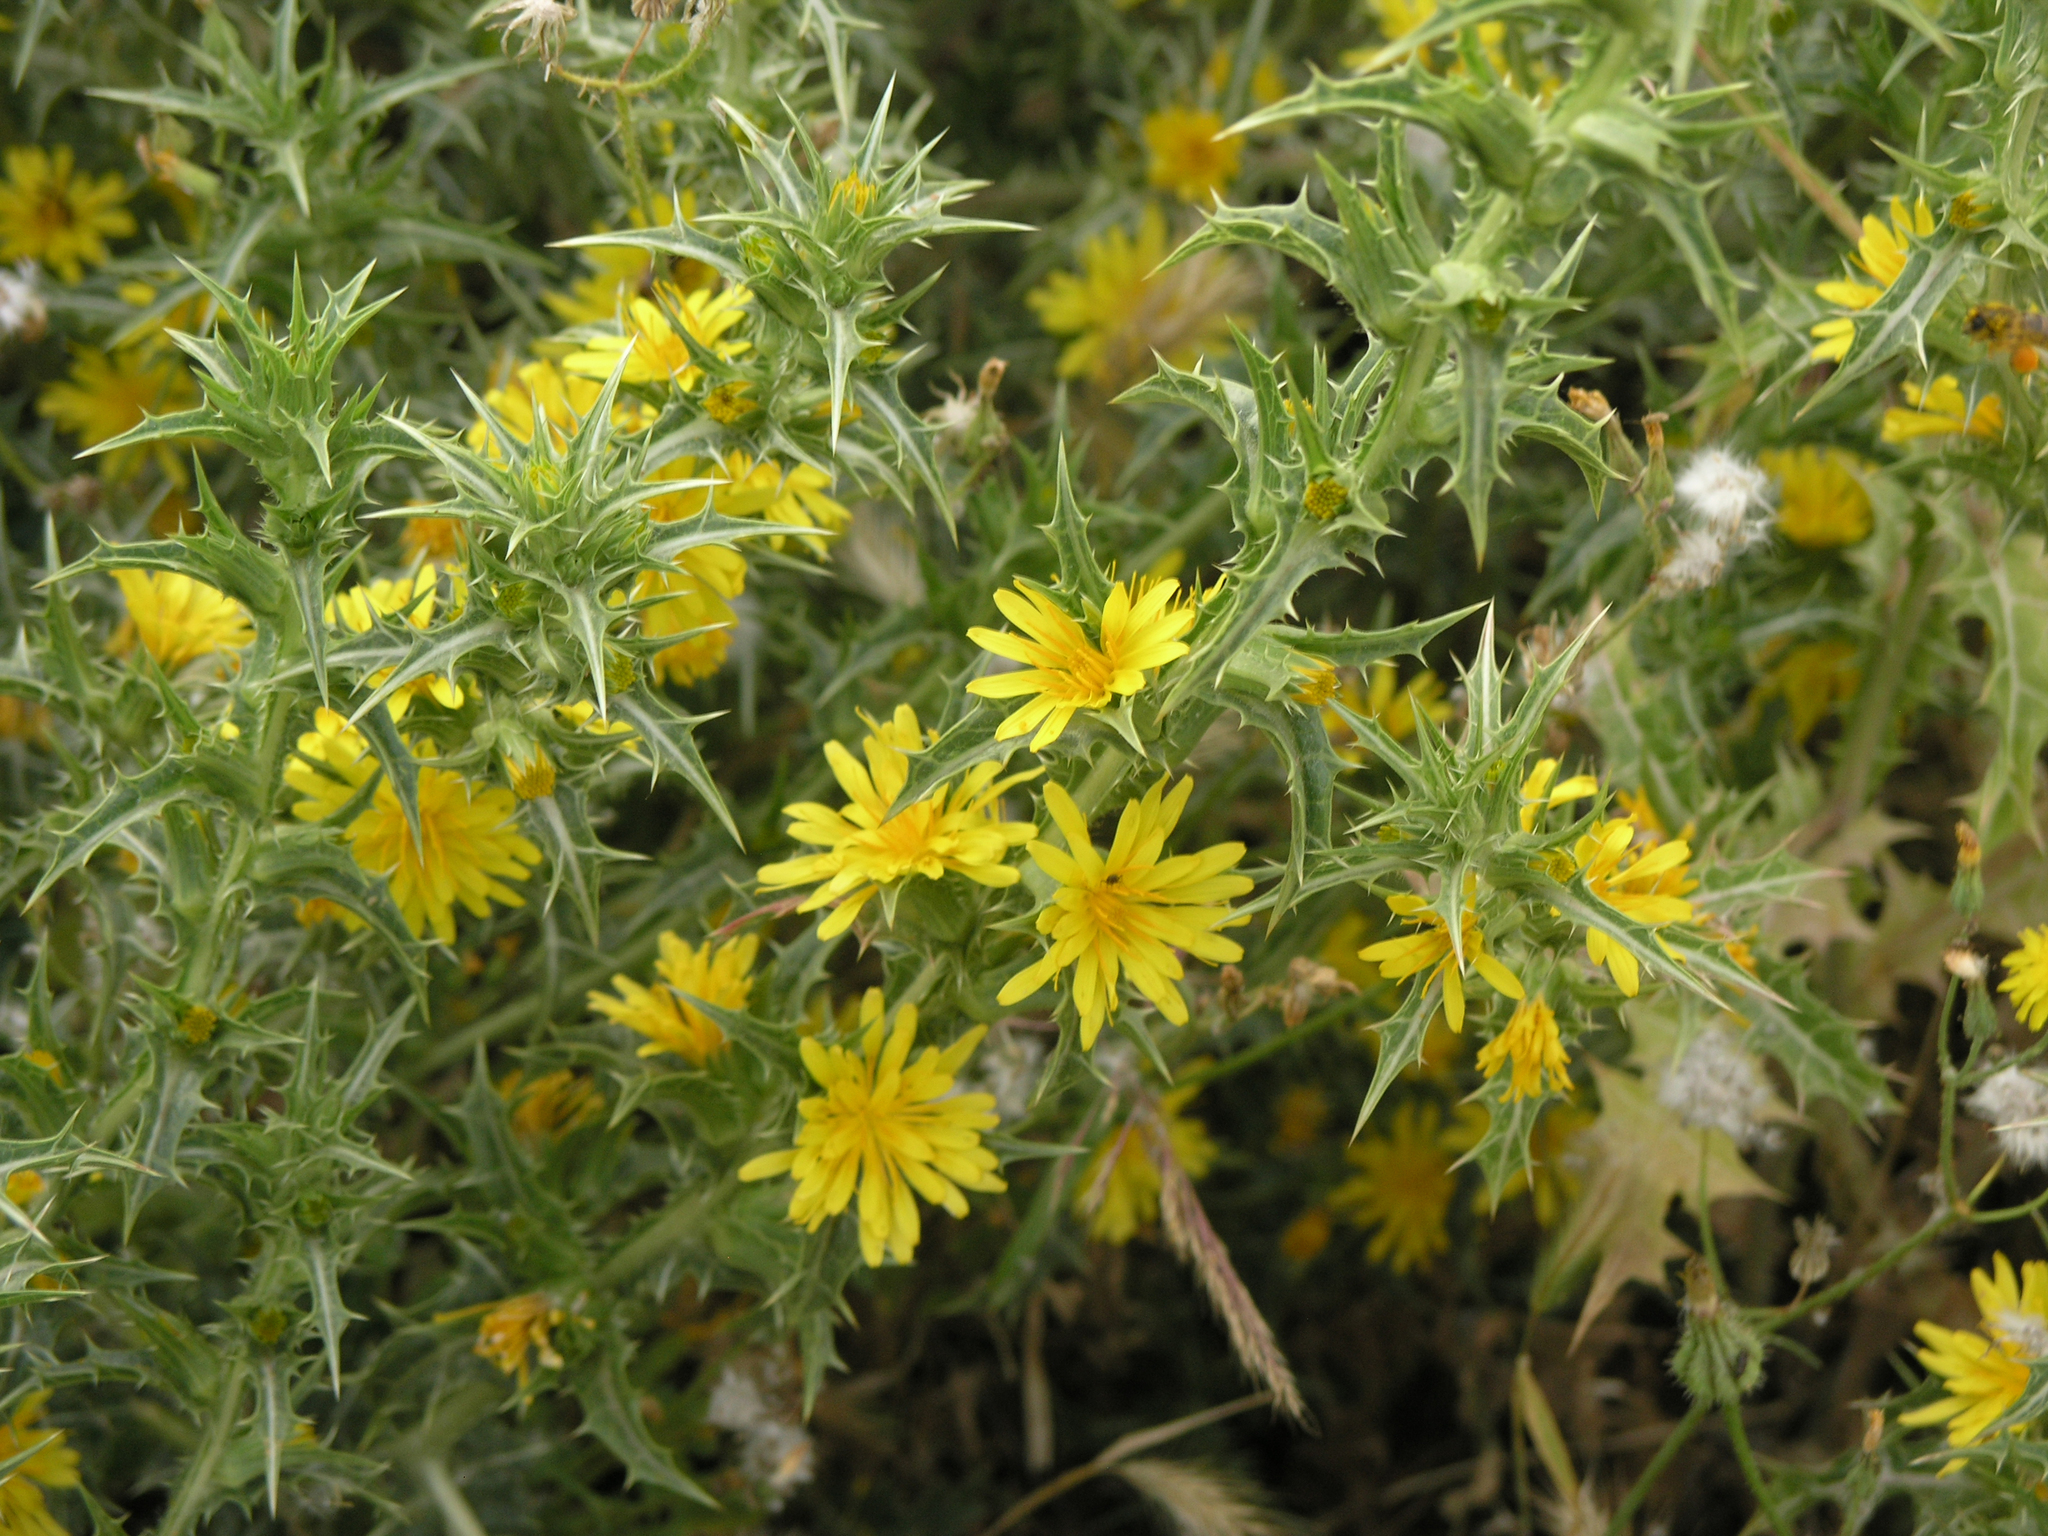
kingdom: Plantae
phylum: Tracheophyta
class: Magnoliopsida
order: Asterales
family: Asteraceae
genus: Scolymus
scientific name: Scolymus hispanicus
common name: Golden thistle
